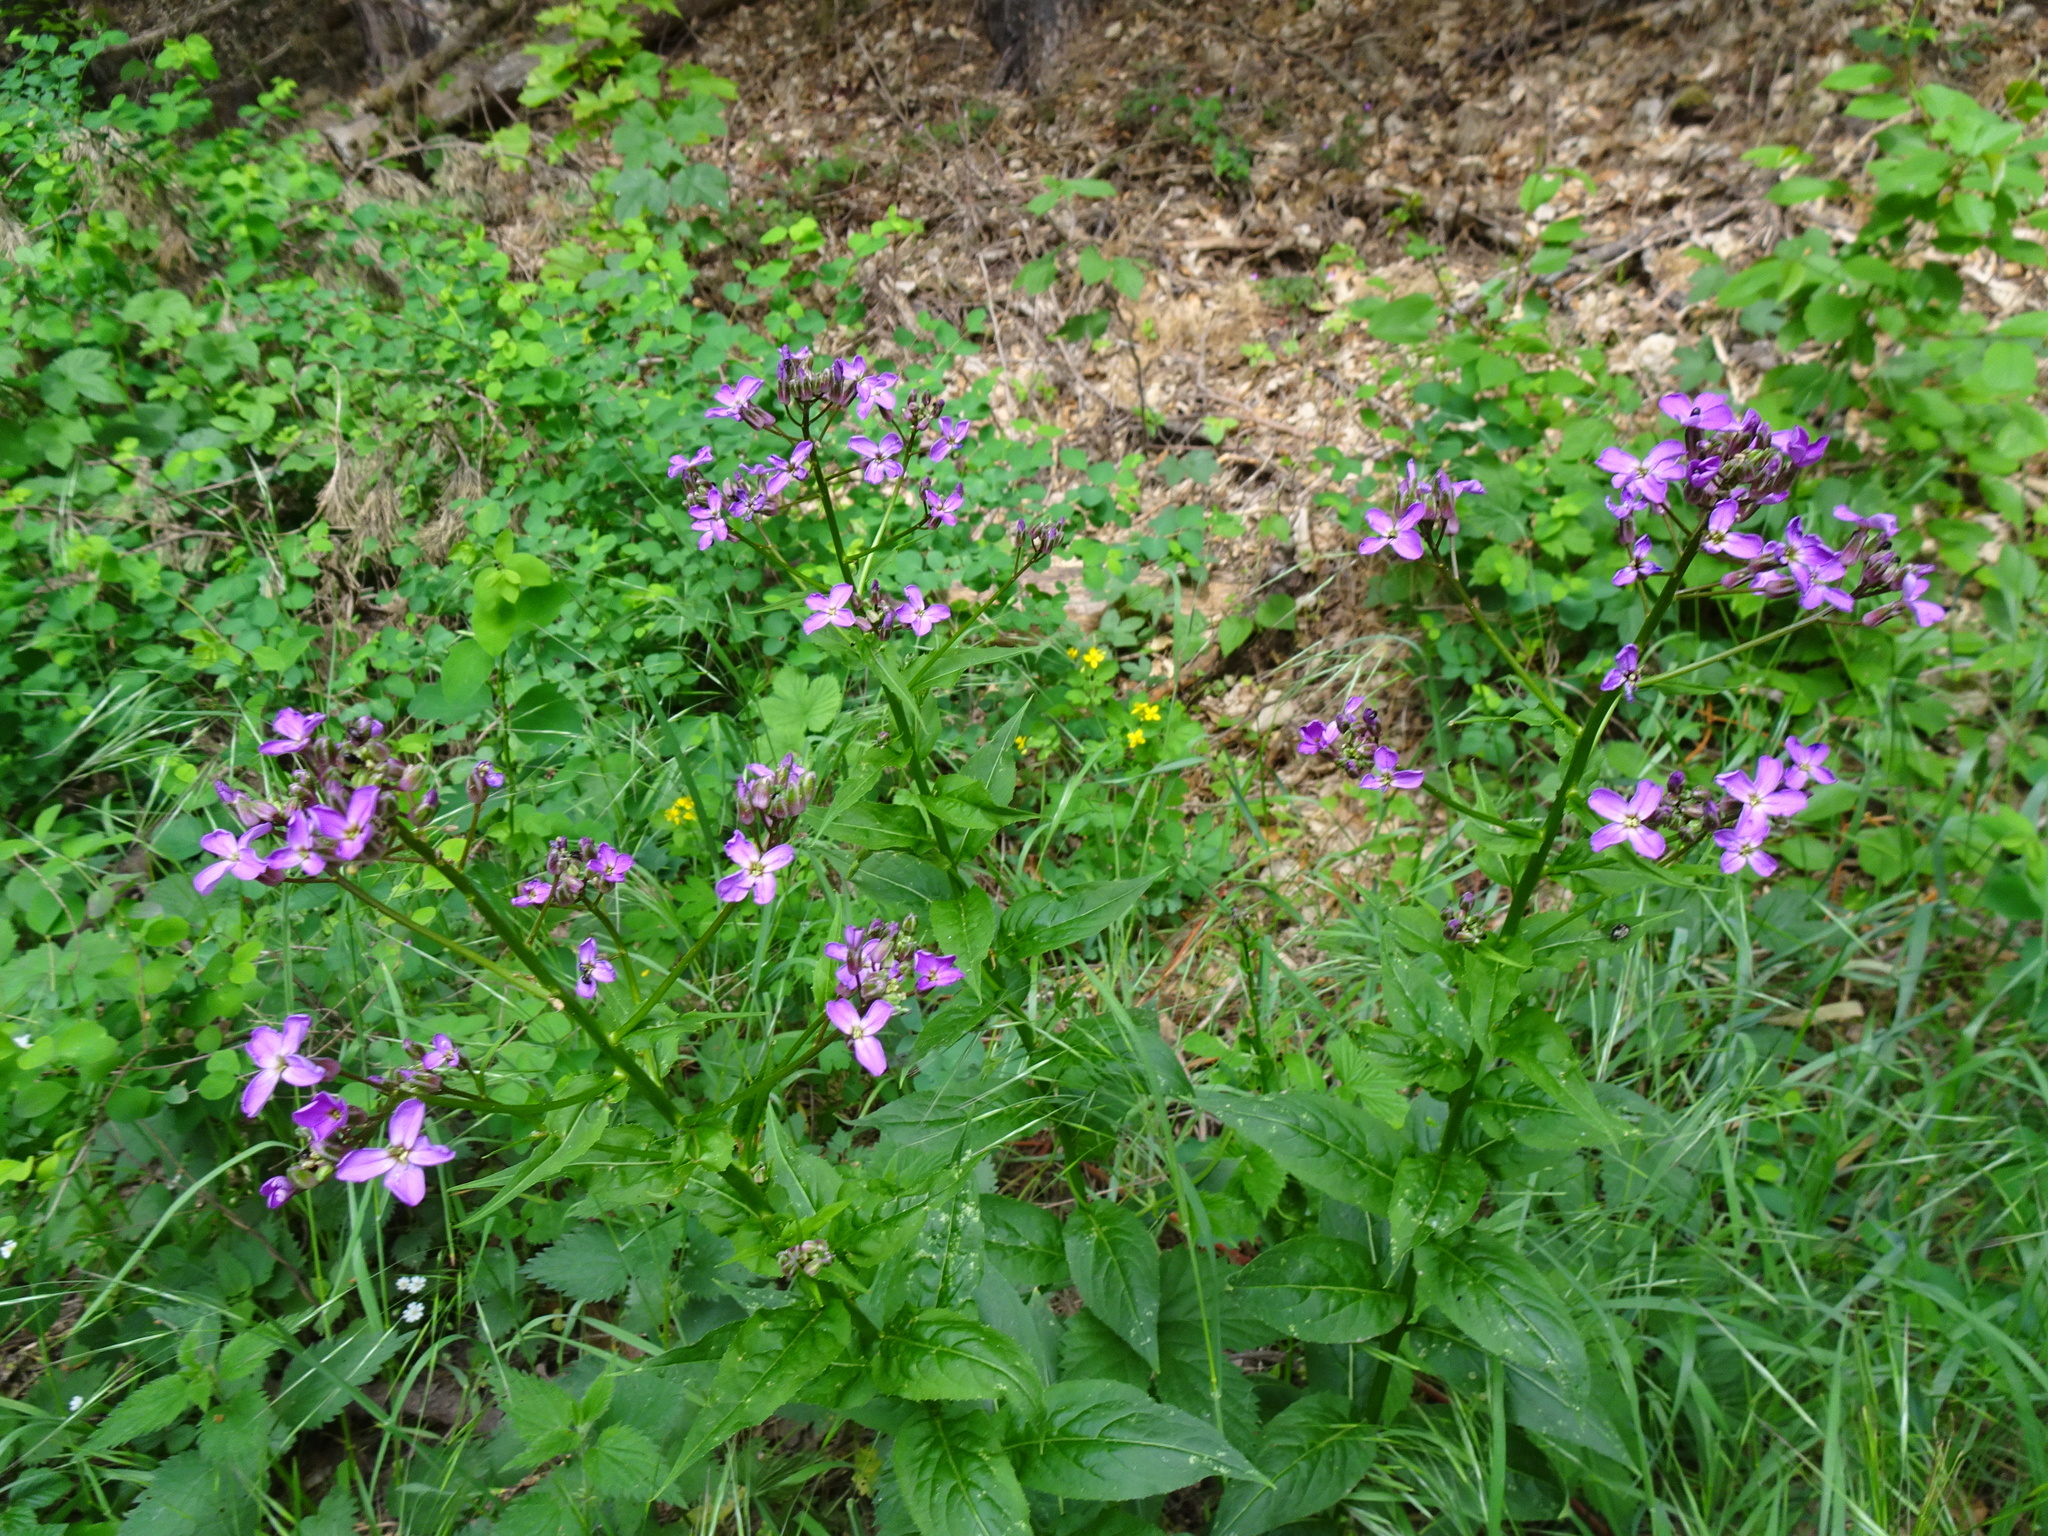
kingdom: Plantae
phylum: Tracheophyta
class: Magnoliopsida
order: Brassicales
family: Brassicaceae
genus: Hesperis
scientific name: Hesperis matronalis
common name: Dame's-violet
